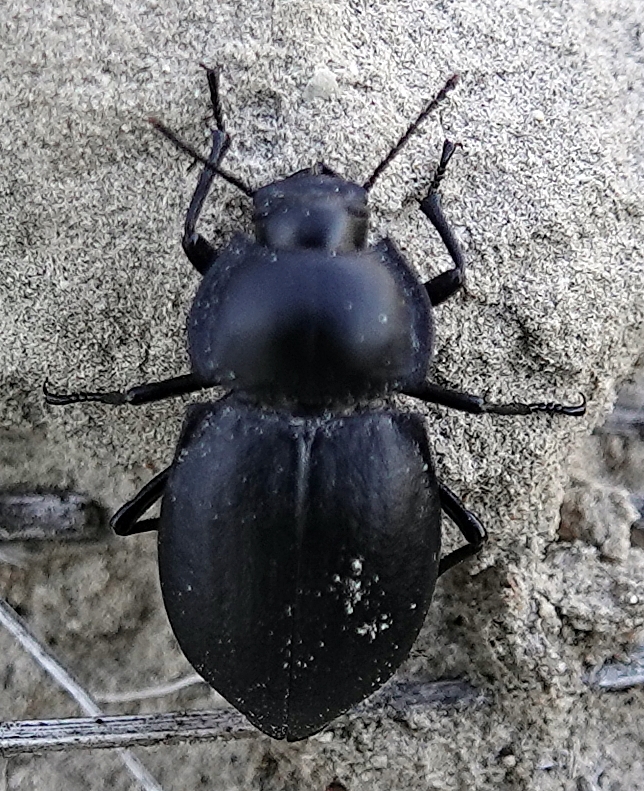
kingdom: Animalia
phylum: Arthropoda
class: Insecta
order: Coleoptera
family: Tenebrionidae
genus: Stenomorpha
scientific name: Stenomorpha polita
